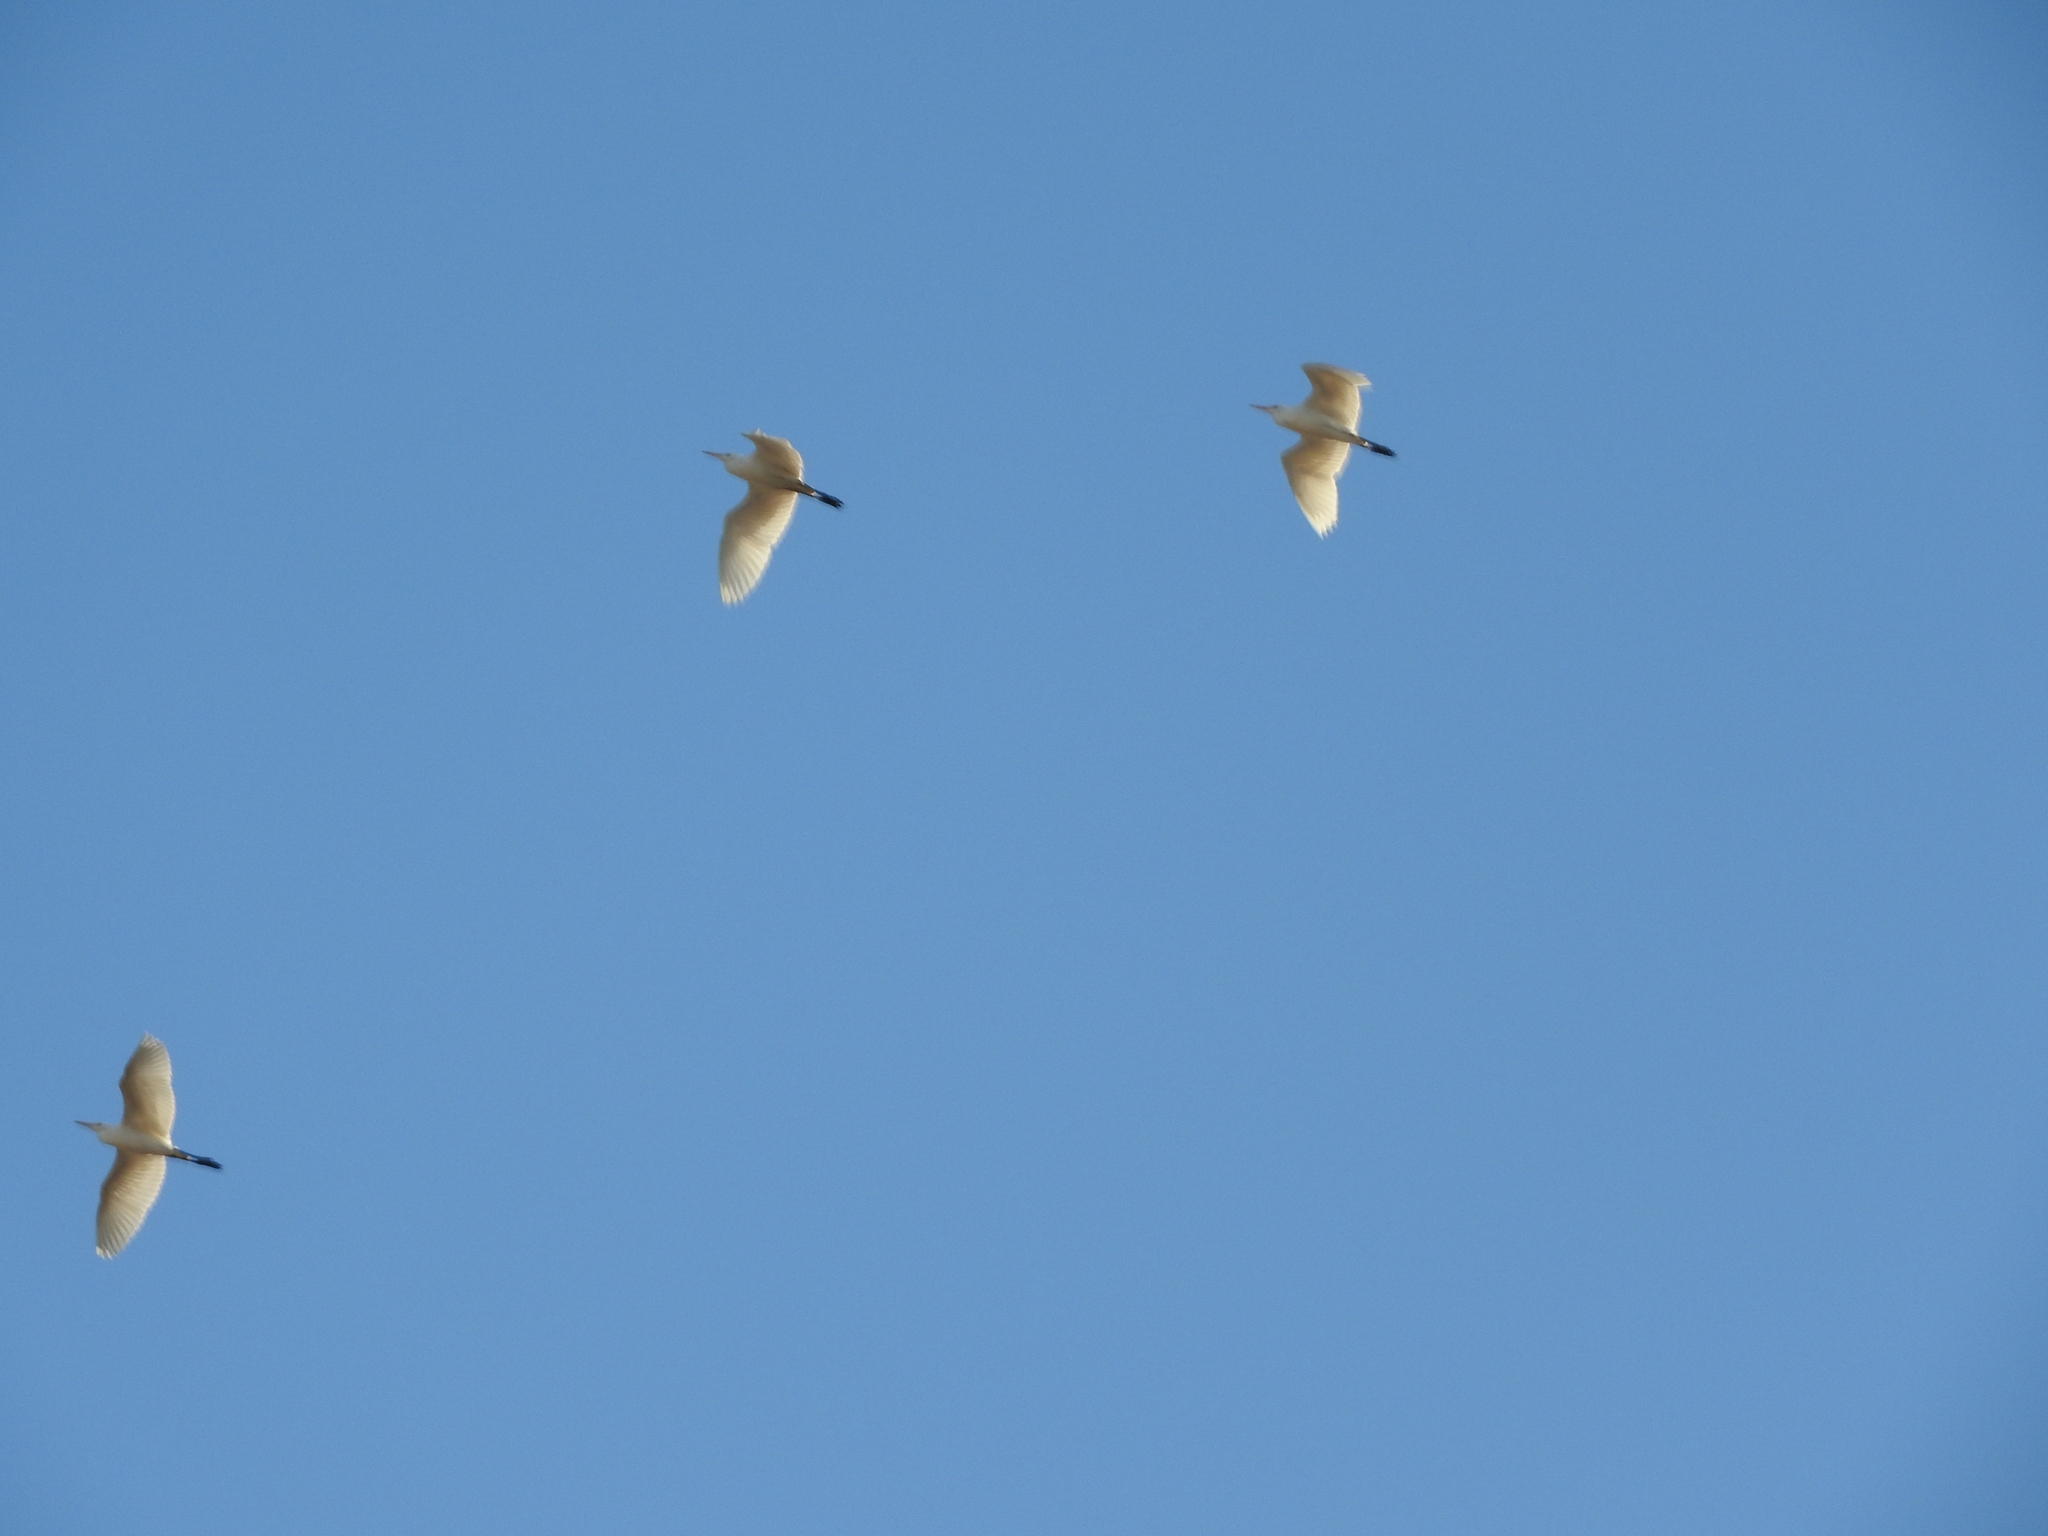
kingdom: Animalia
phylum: Chordata
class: Aves
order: Pelecaniformes
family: Ardeidae
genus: Bubulcus
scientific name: Bubulcus ibis
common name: Cattle egret
